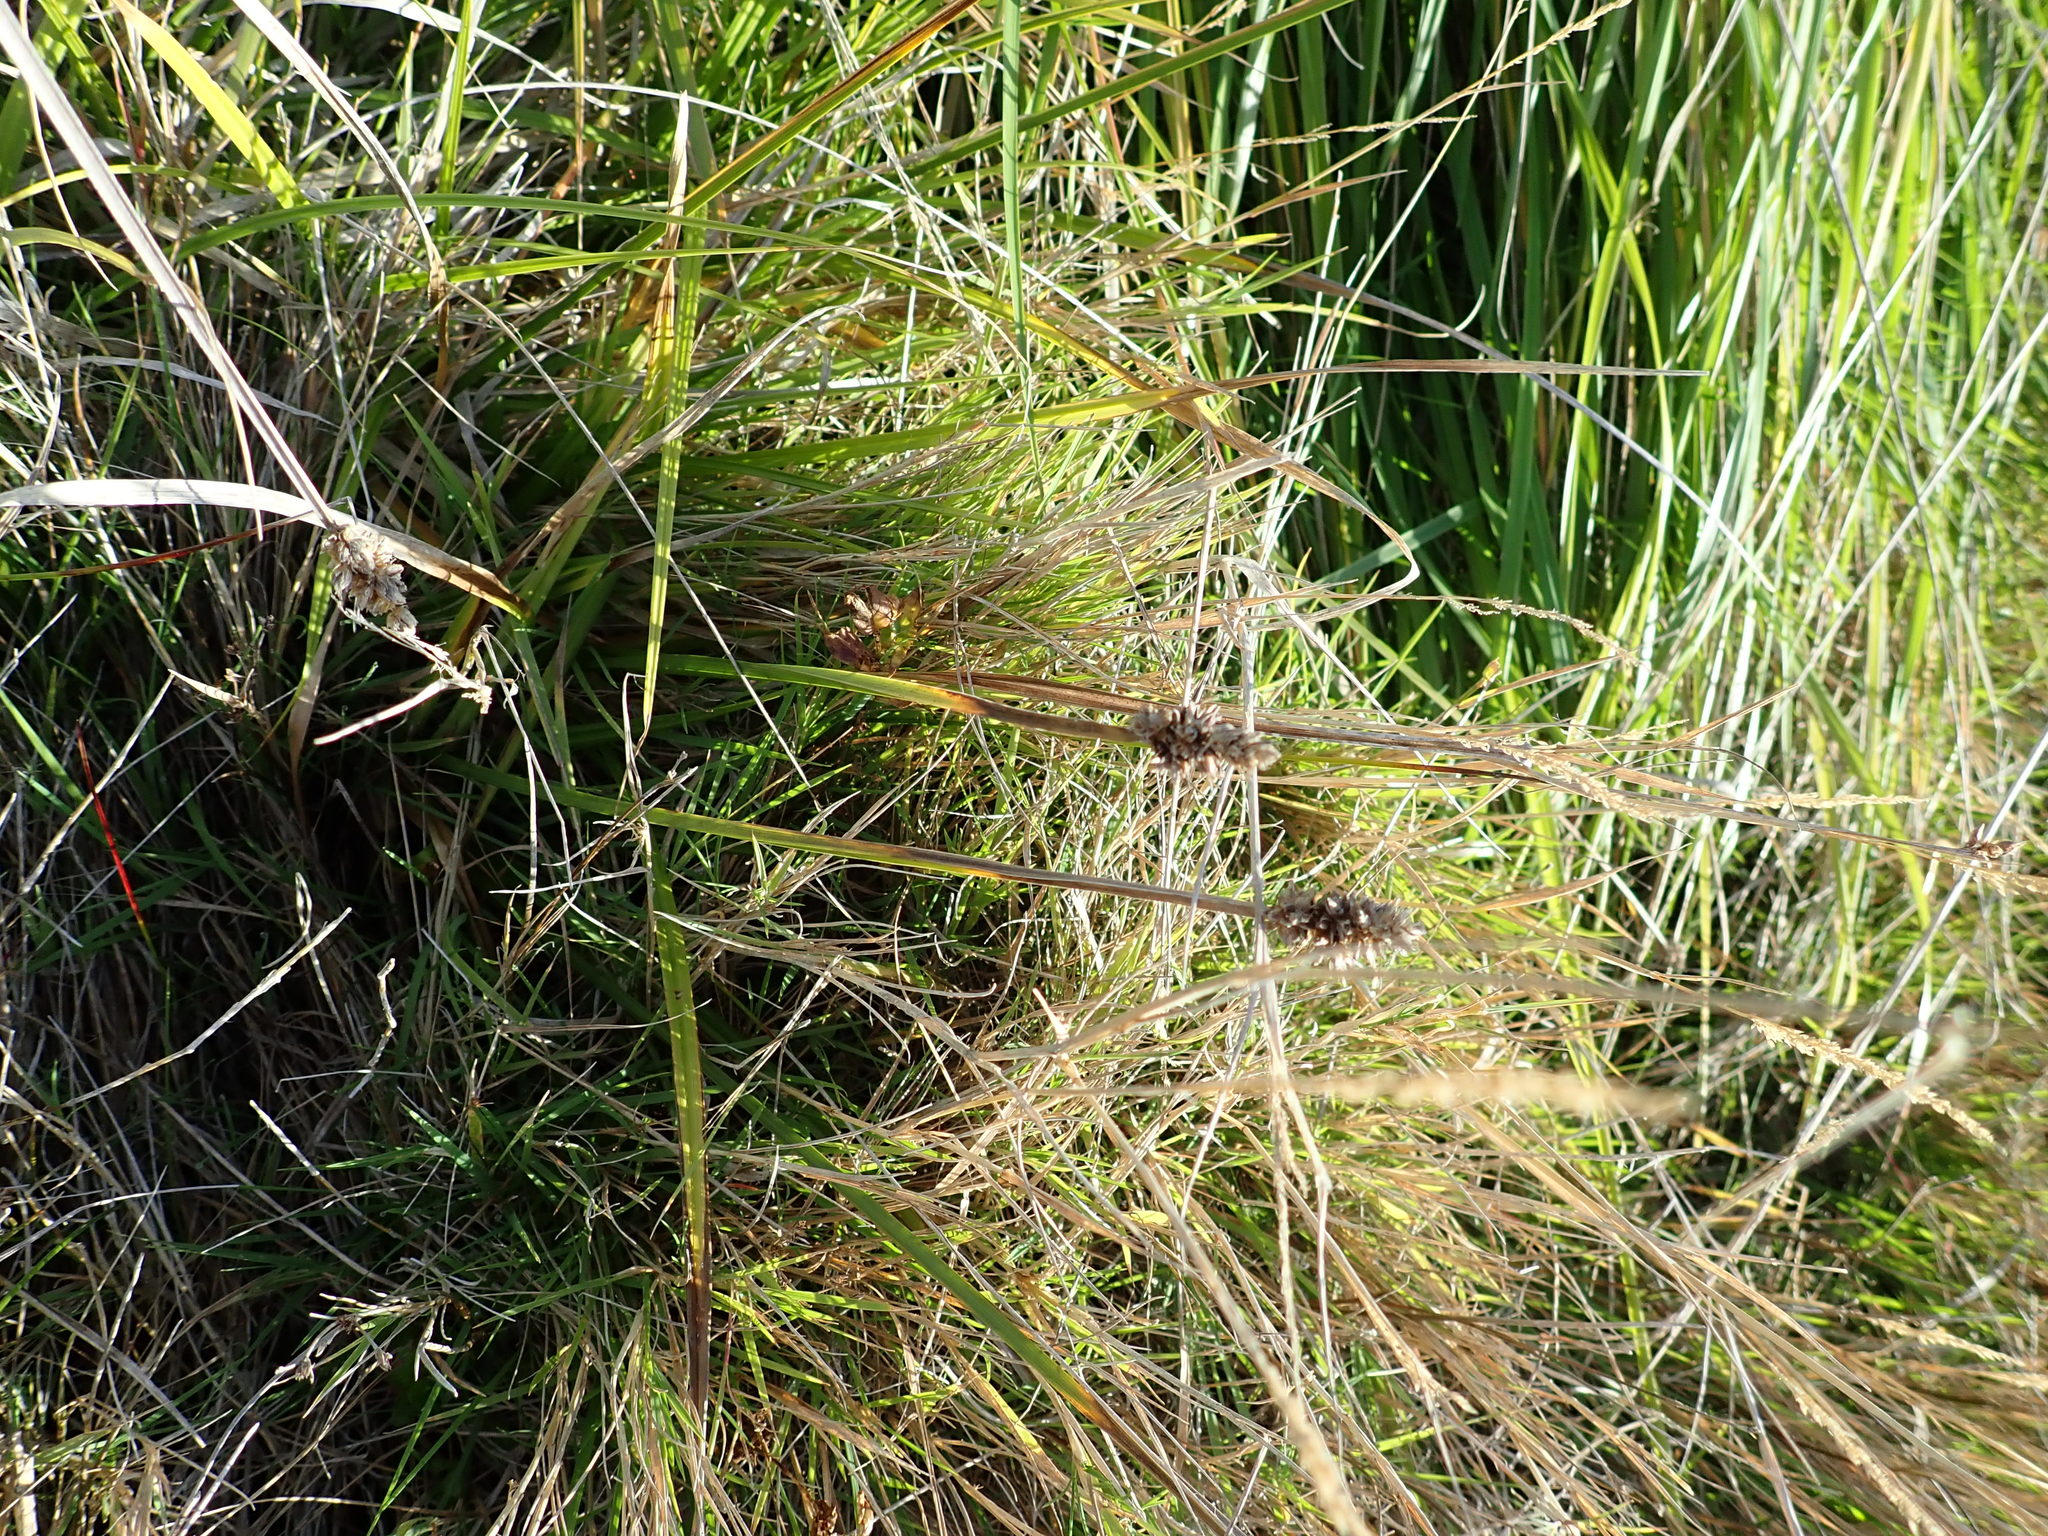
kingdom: Plantae
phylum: Tracheophyta
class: Liliopsida
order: Poales
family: Cyperaceae
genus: Carex
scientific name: Carex otrubae
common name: False fox-sedge
